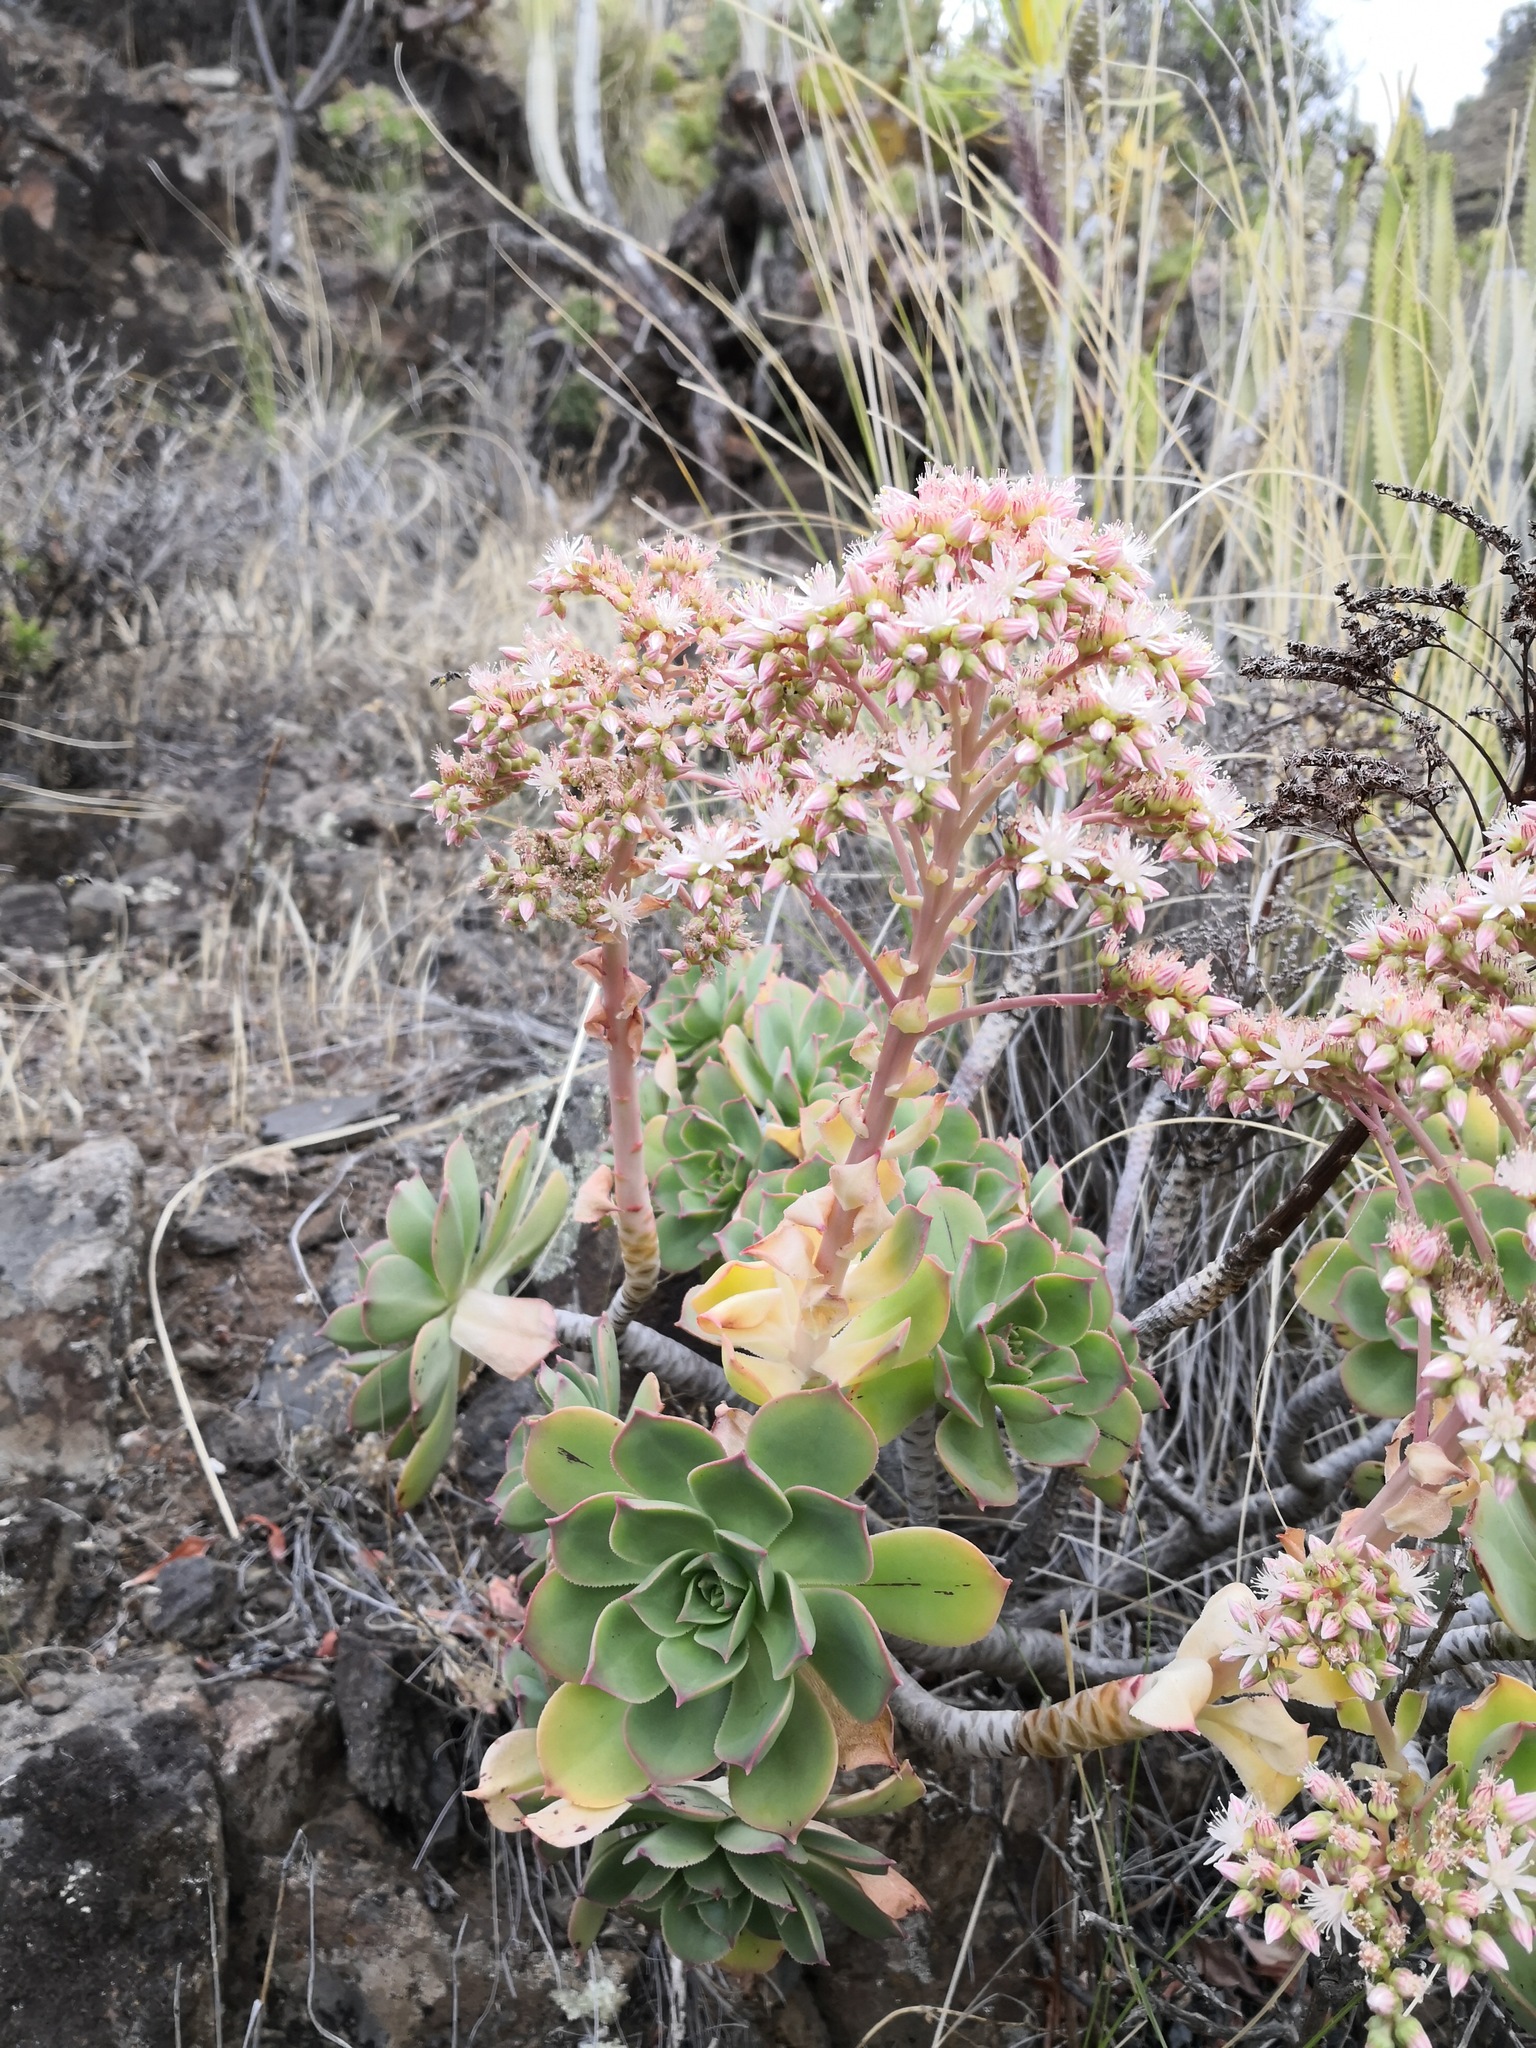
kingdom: Plantae
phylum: Tracheophyta
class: Magnoliopsida
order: Saxifragales
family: Crassulaceae
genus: Aeonium
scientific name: Aeonium percarneum
